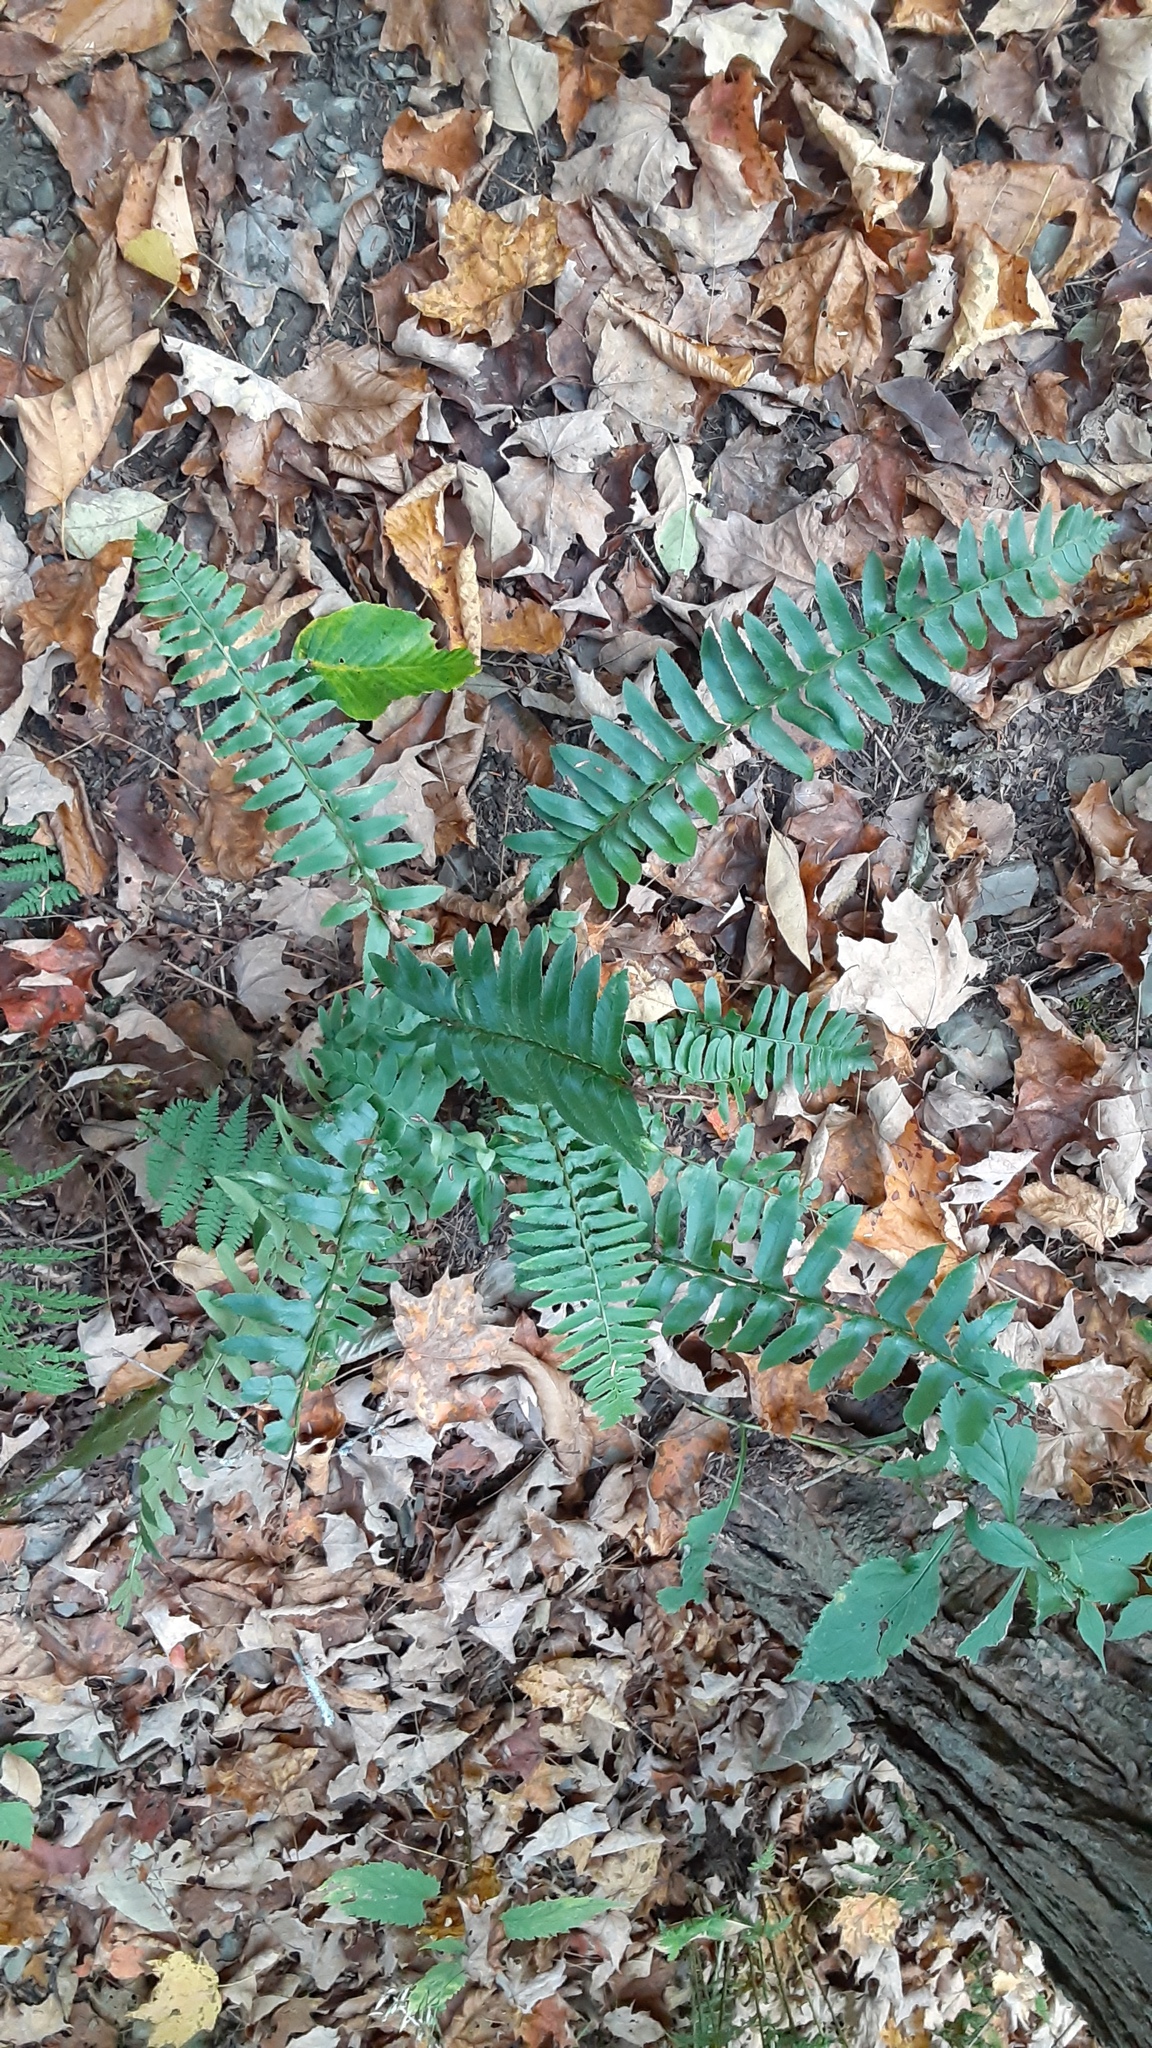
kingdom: Plantae
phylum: Tracheophyta
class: Polypodiopsida
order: Polypodiales
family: Dryopteridaceae
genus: Polystichum
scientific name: Polystichum acrostichoides
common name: Christmas fern
